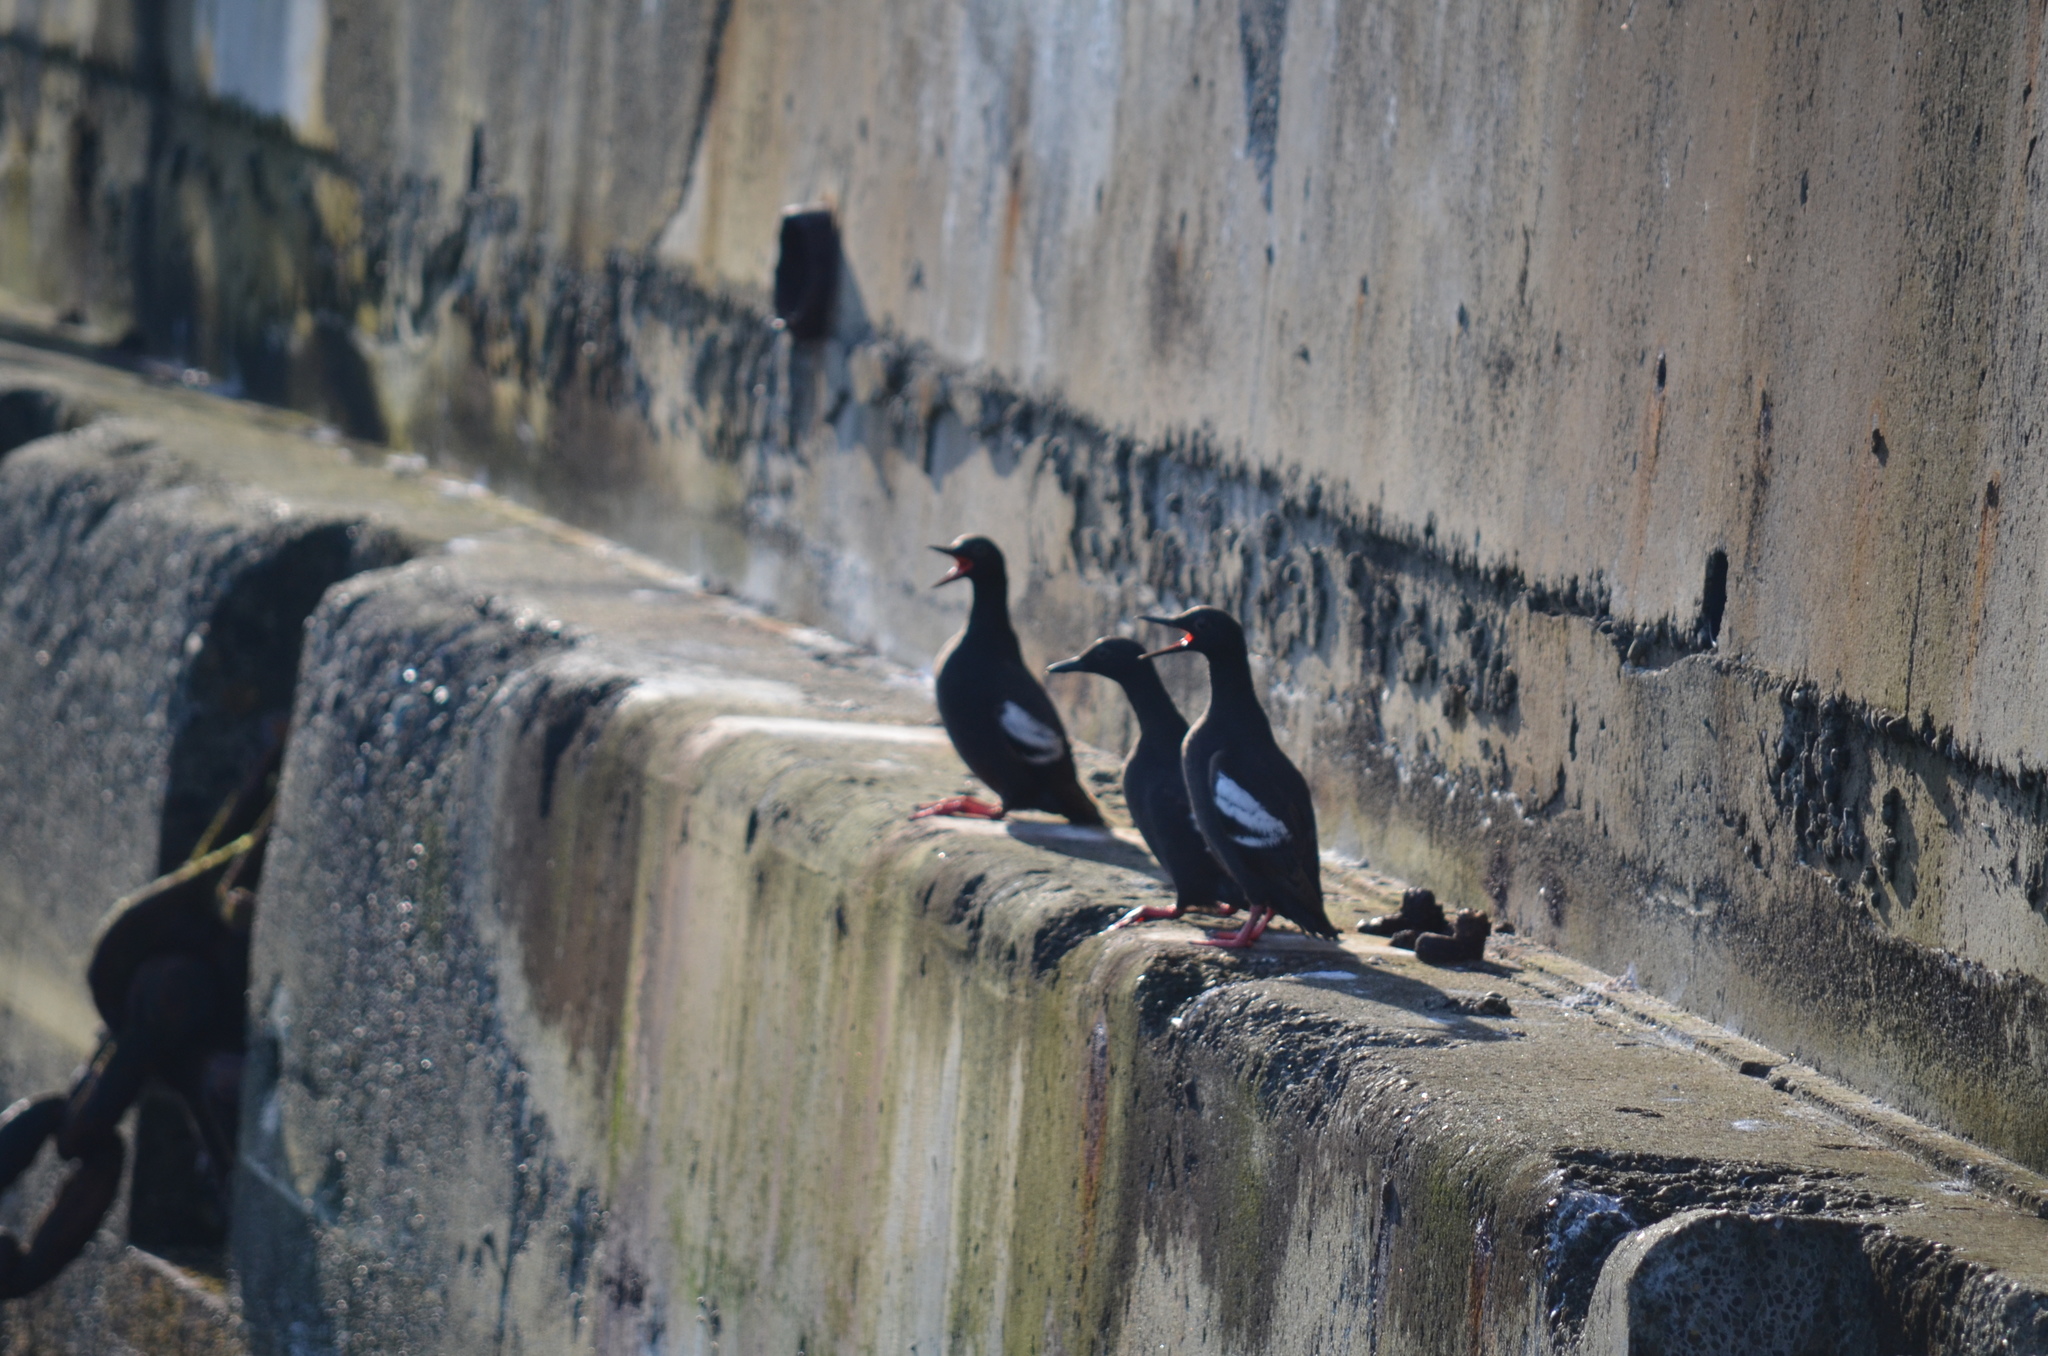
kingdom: Animalia
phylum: Chordata
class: Aves
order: Charadriiformes
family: Alcidae
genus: Cepphus
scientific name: Cepphus columba
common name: Pigeon guillemot
